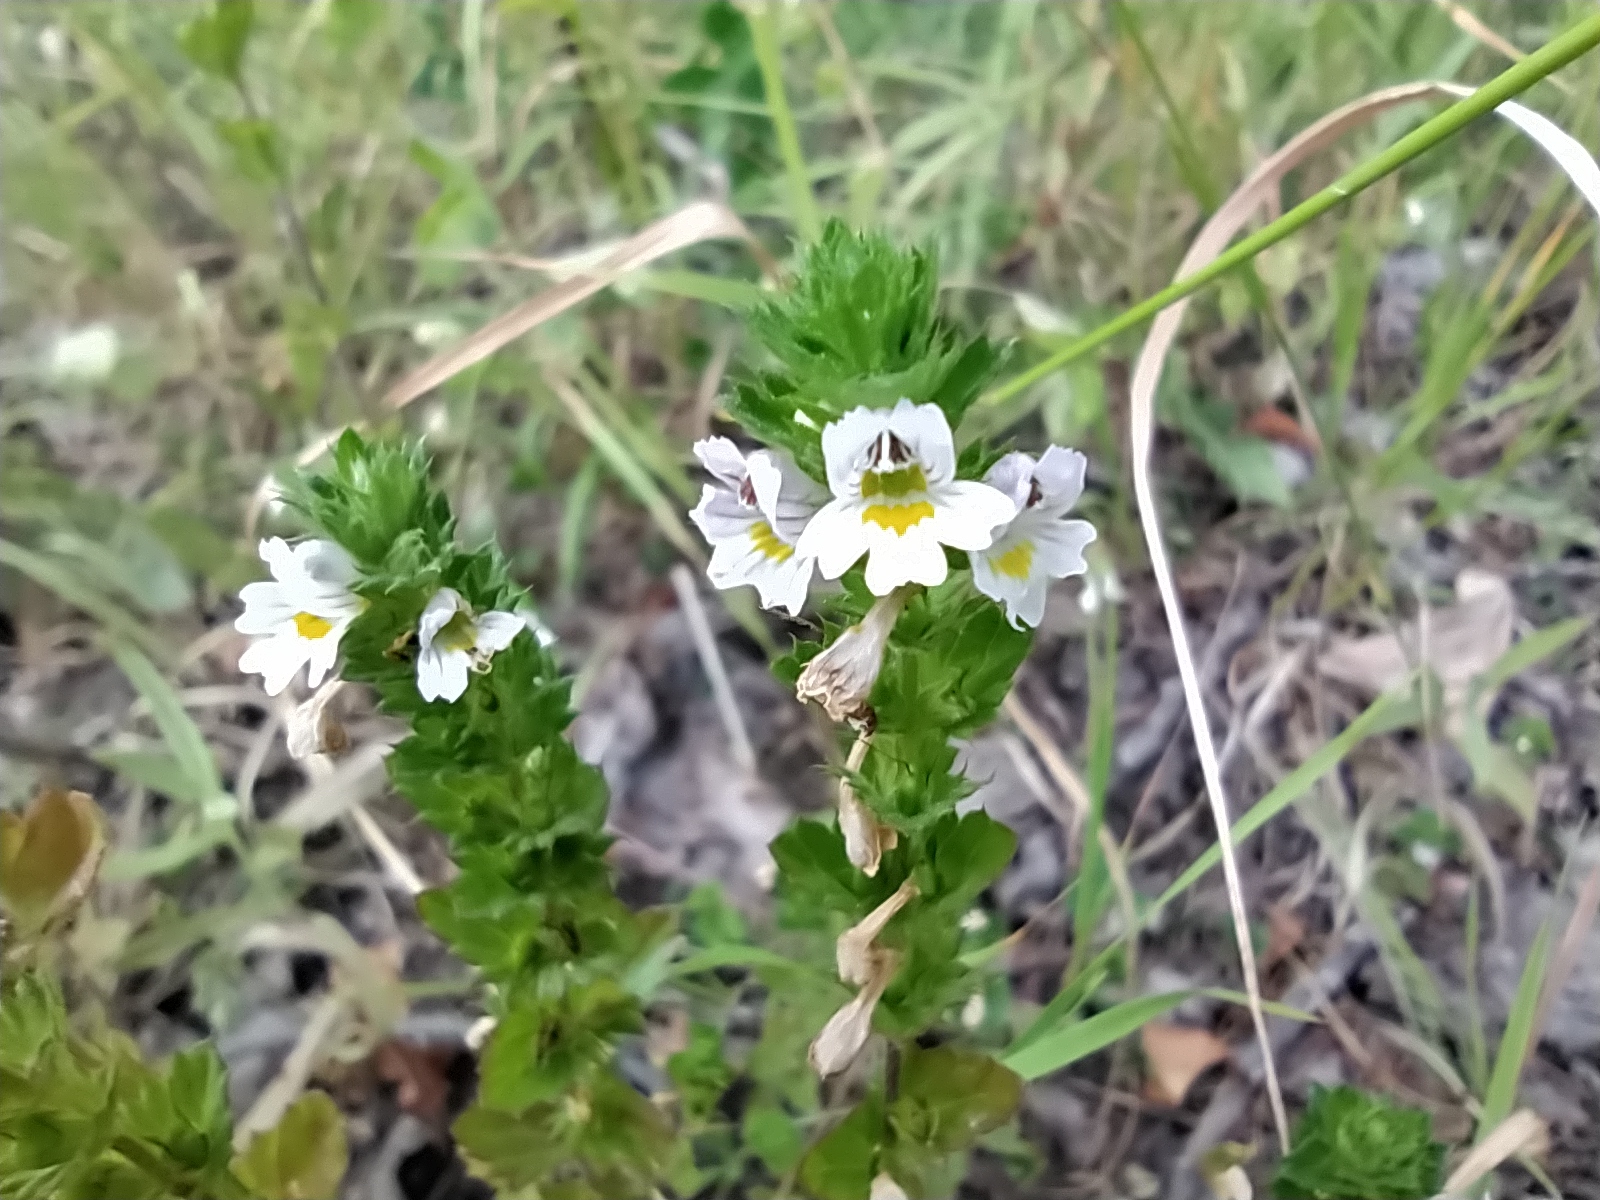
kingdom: Plantae
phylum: Tracheophyta
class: Magnoliopsida
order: Lamiales
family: Orobanchaceae
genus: Euphrasia
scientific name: Euphrasia stricta
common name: Drug eyebright
